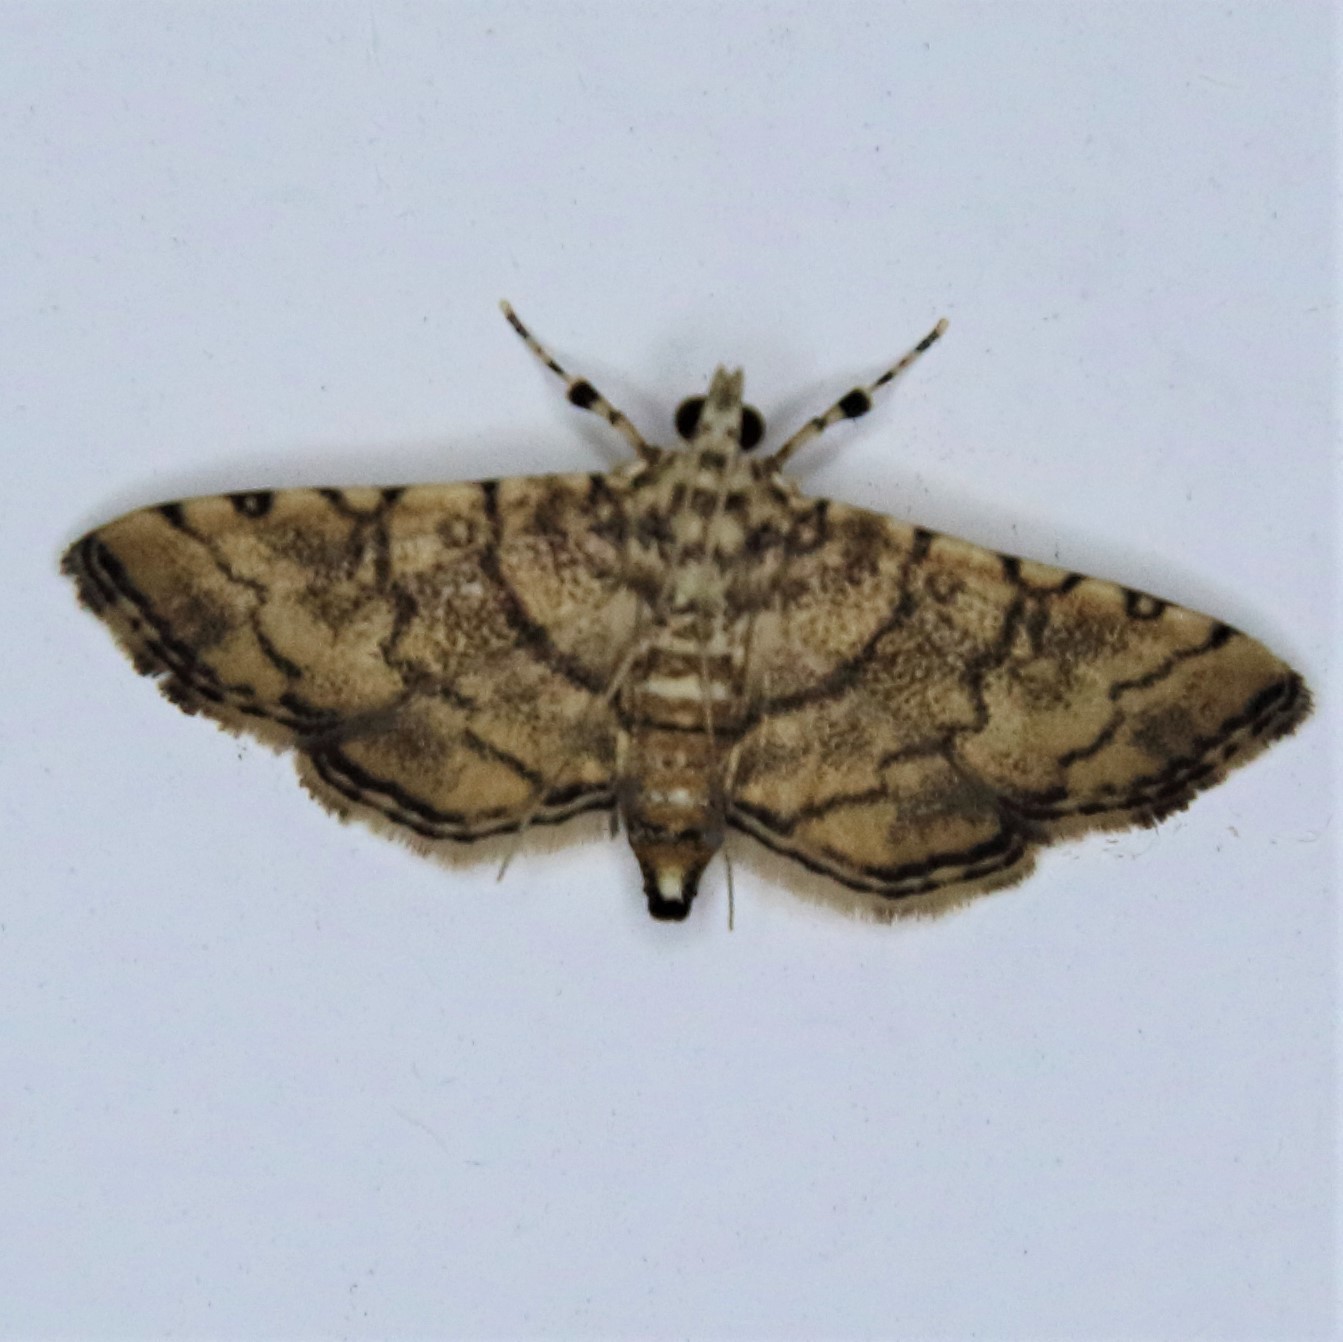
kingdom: Animalia
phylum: Arthropoda
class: Insecta
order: Lepidoptera
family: Crambidae
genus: Lamprosema
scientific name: Lamprosema tampiusalis
